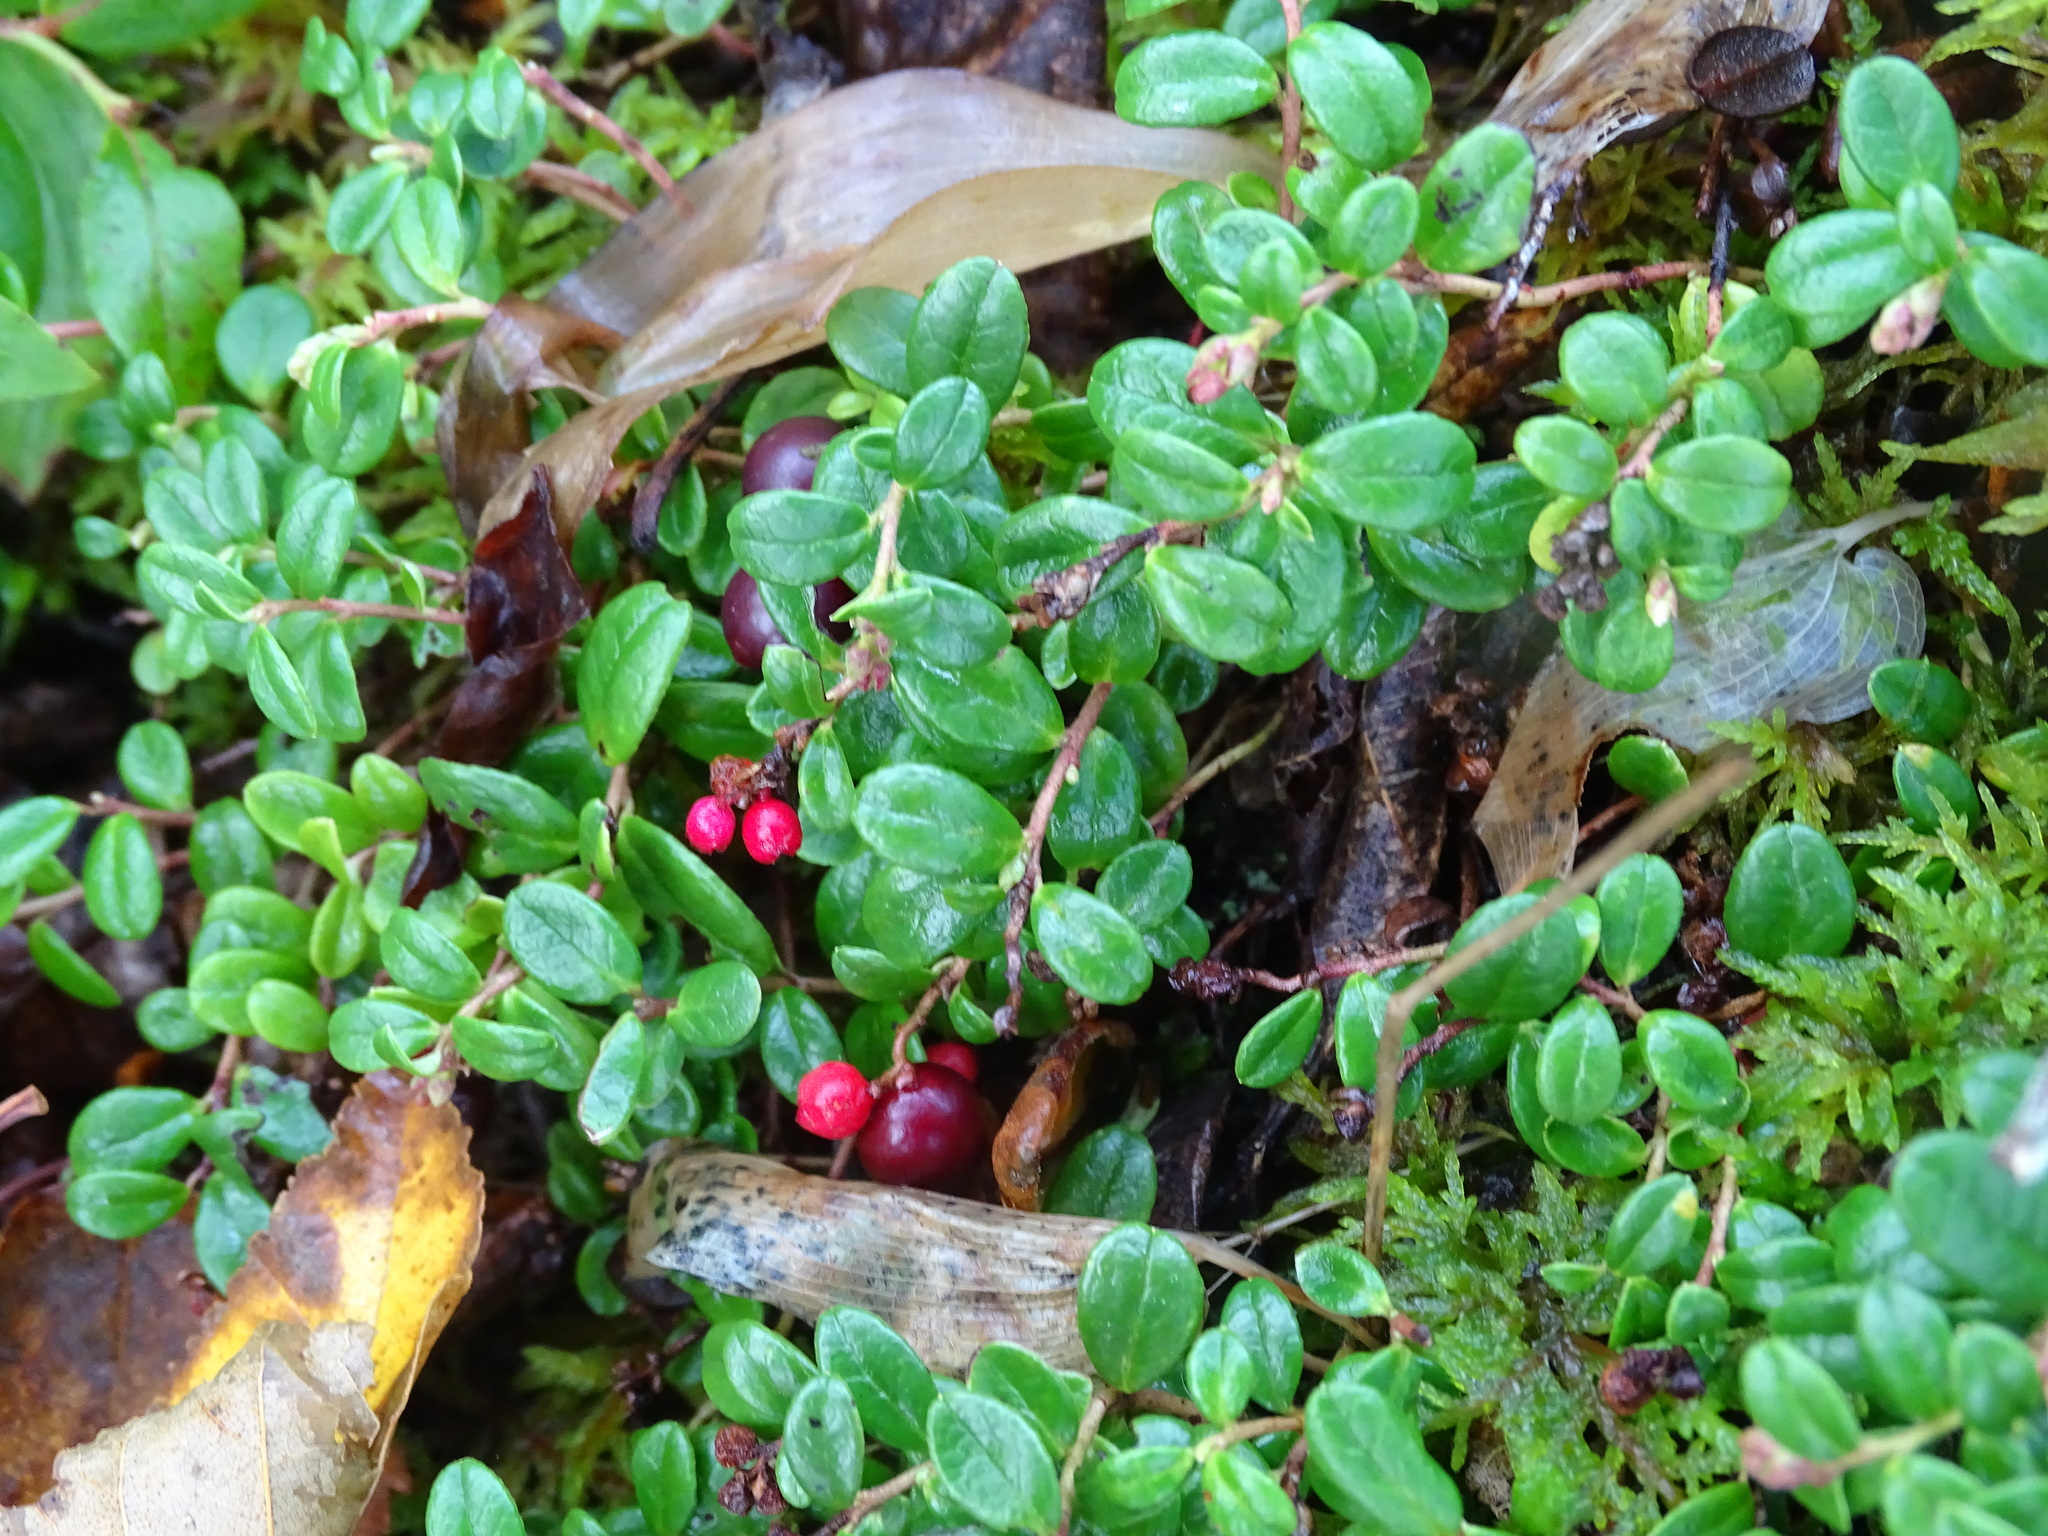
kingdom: Plantae
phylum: Tracheophyta
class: Magnoliopsida
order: Ericales
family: Ericaceae
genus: Vaccinium
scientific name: Vaccinium vitis-idaea
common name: Cowberry
